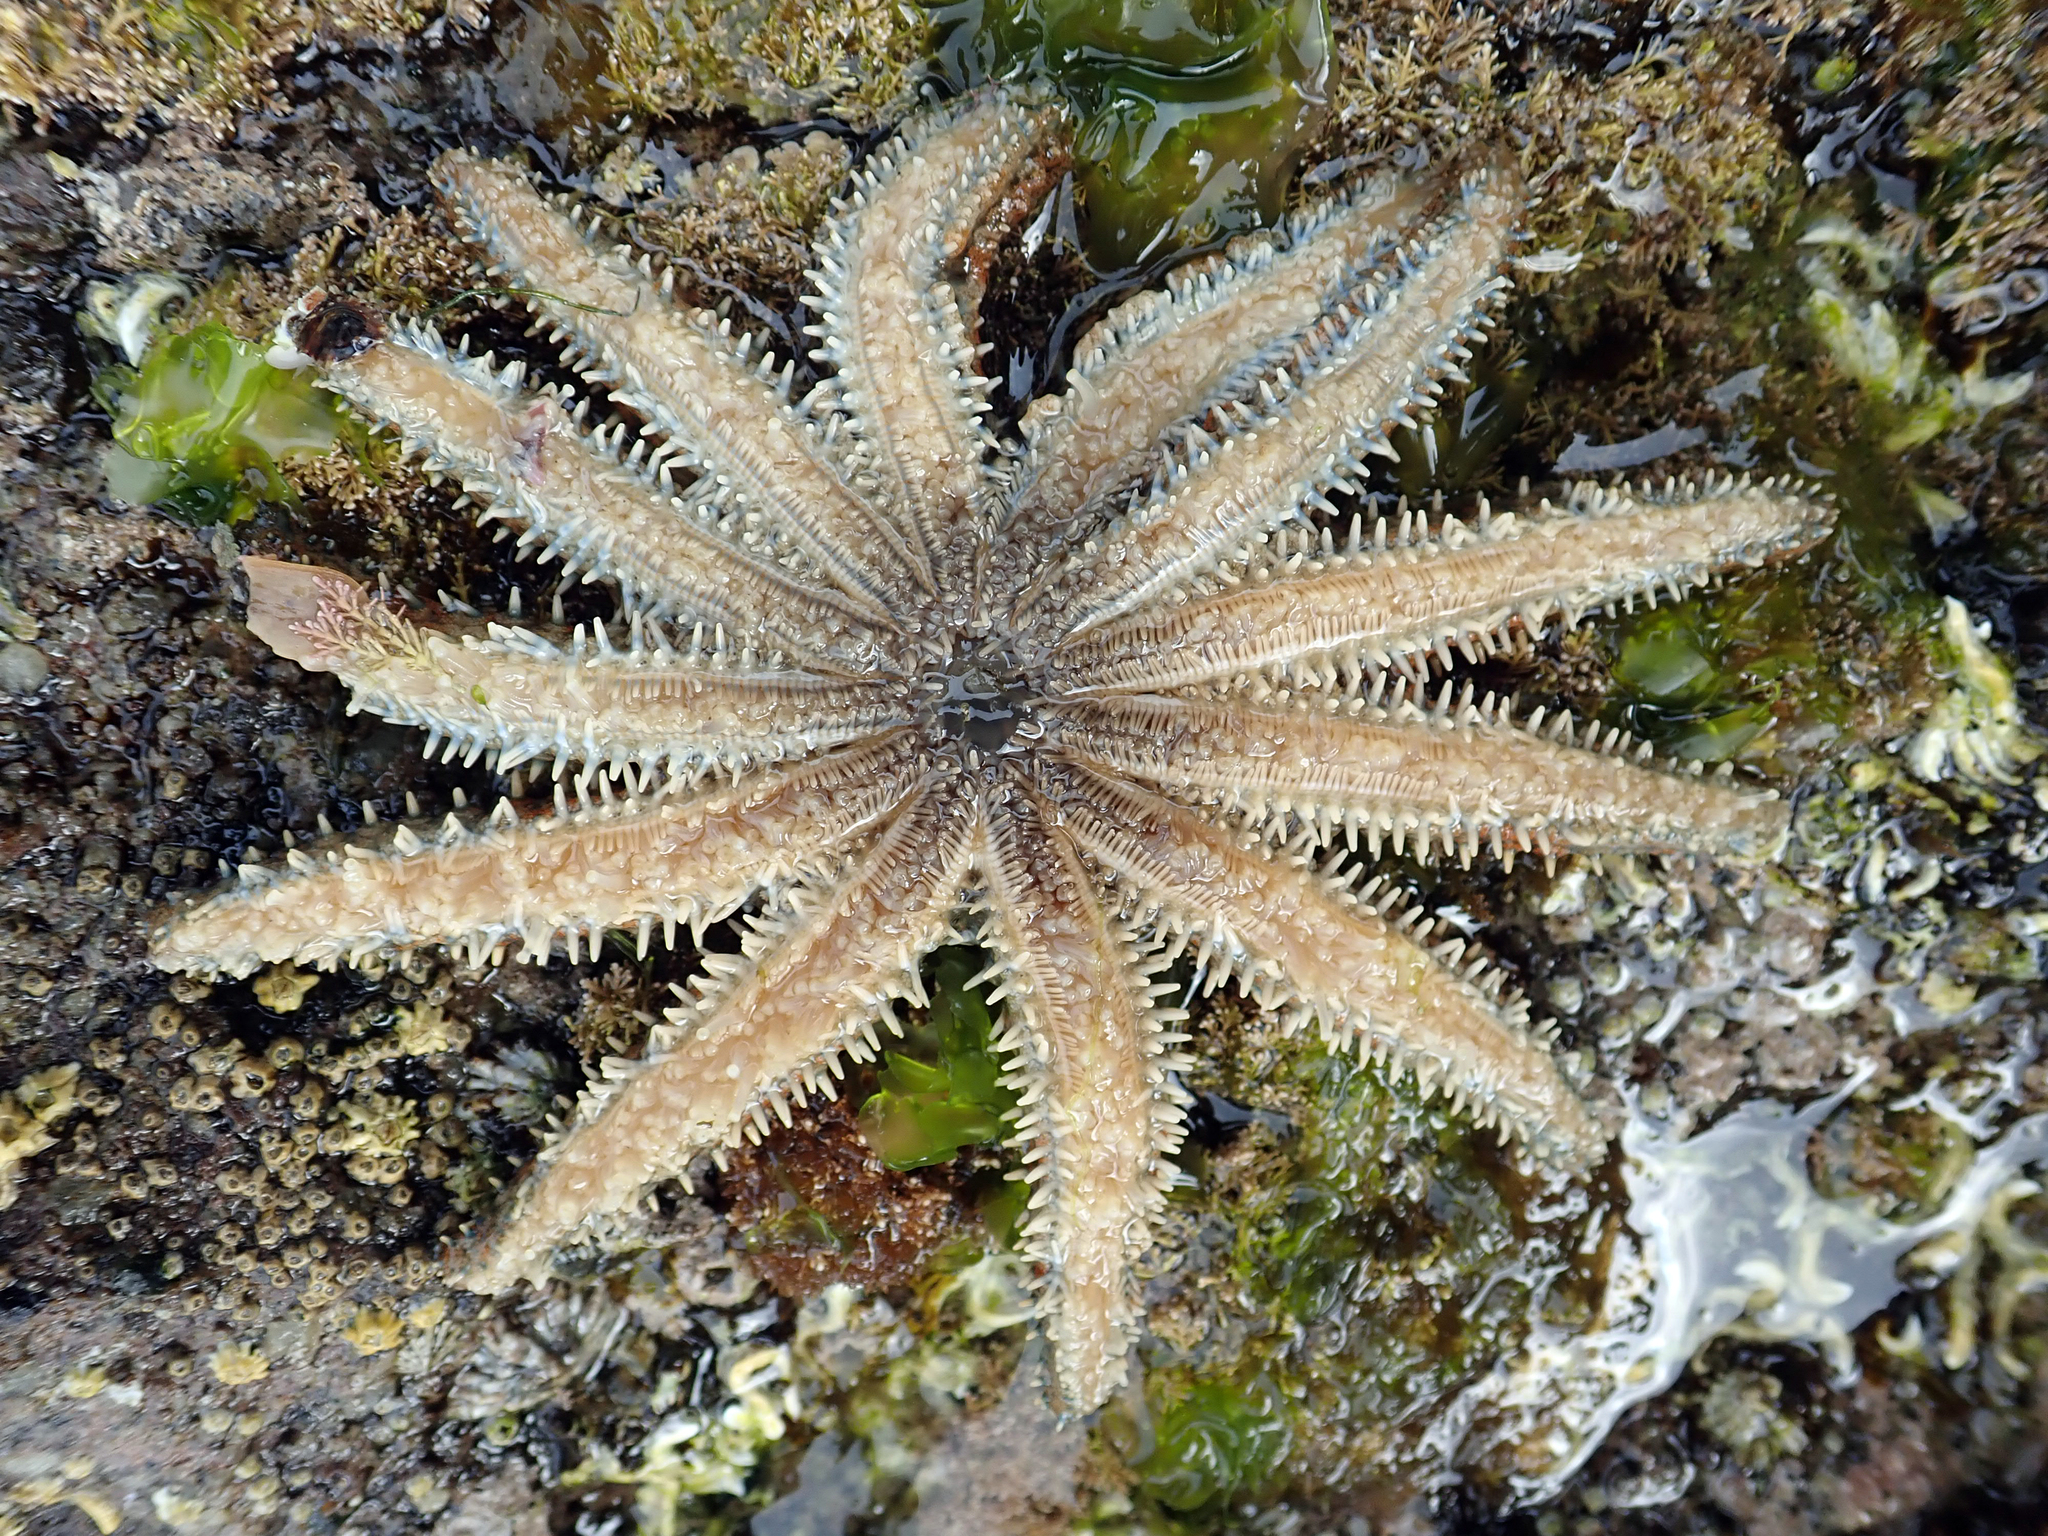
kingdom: Animalia
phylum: Echinodermata
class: Asteroidea
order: Forcipulatida
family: Asteriidae
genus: Coscinasterias
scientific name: Coscinasterias muricata
